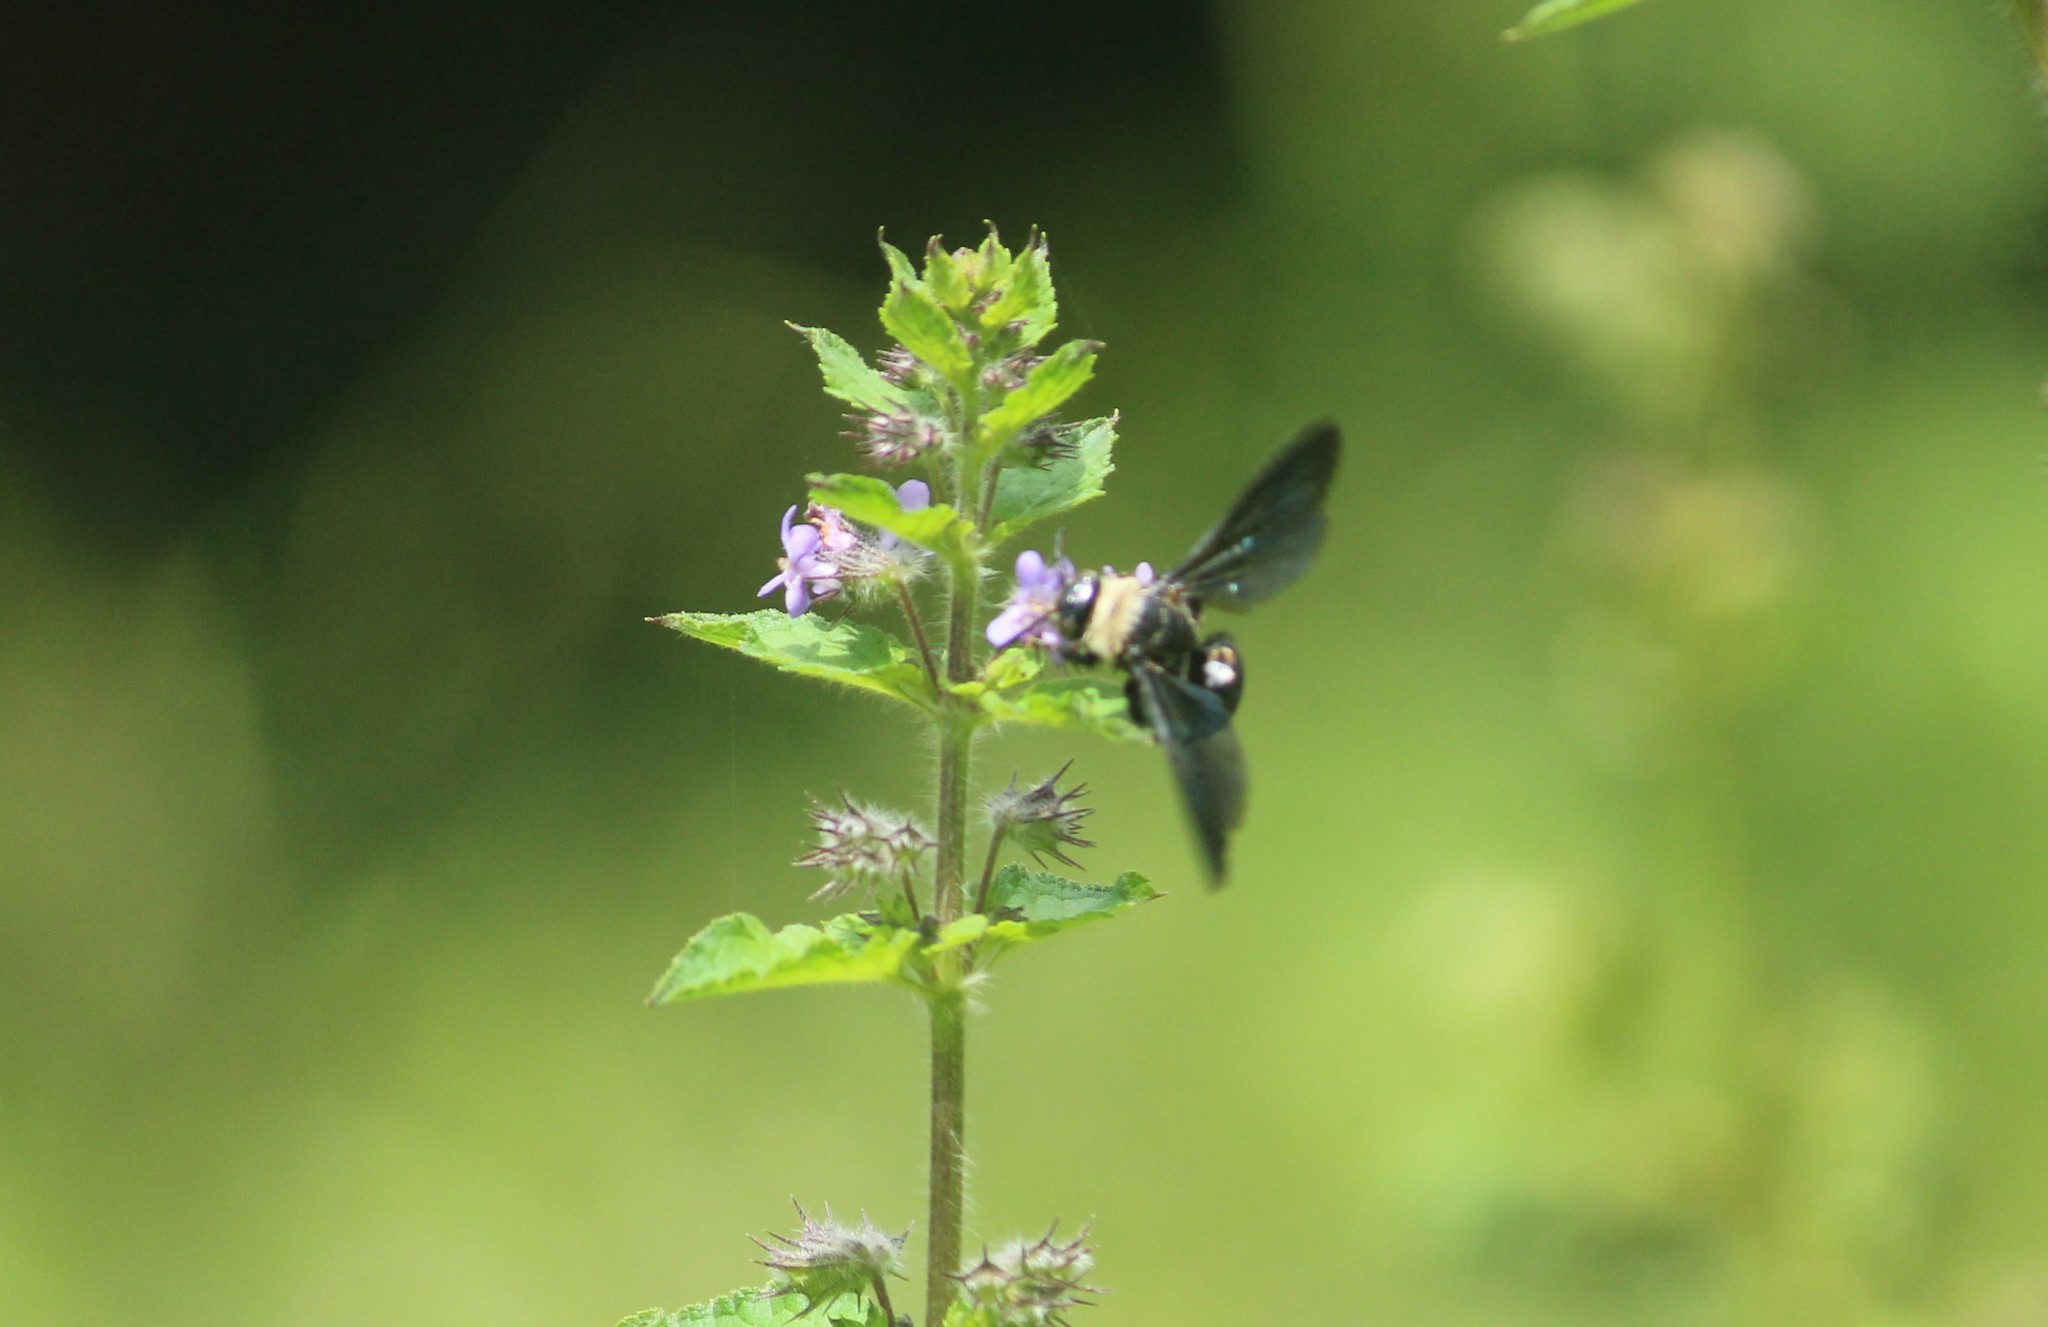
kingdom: Animalia
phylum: Arthropoda
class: Insecta
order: Hymenoptera
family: Scoliidae
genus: Campsomeriella
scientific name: Campsomeriella collaris
